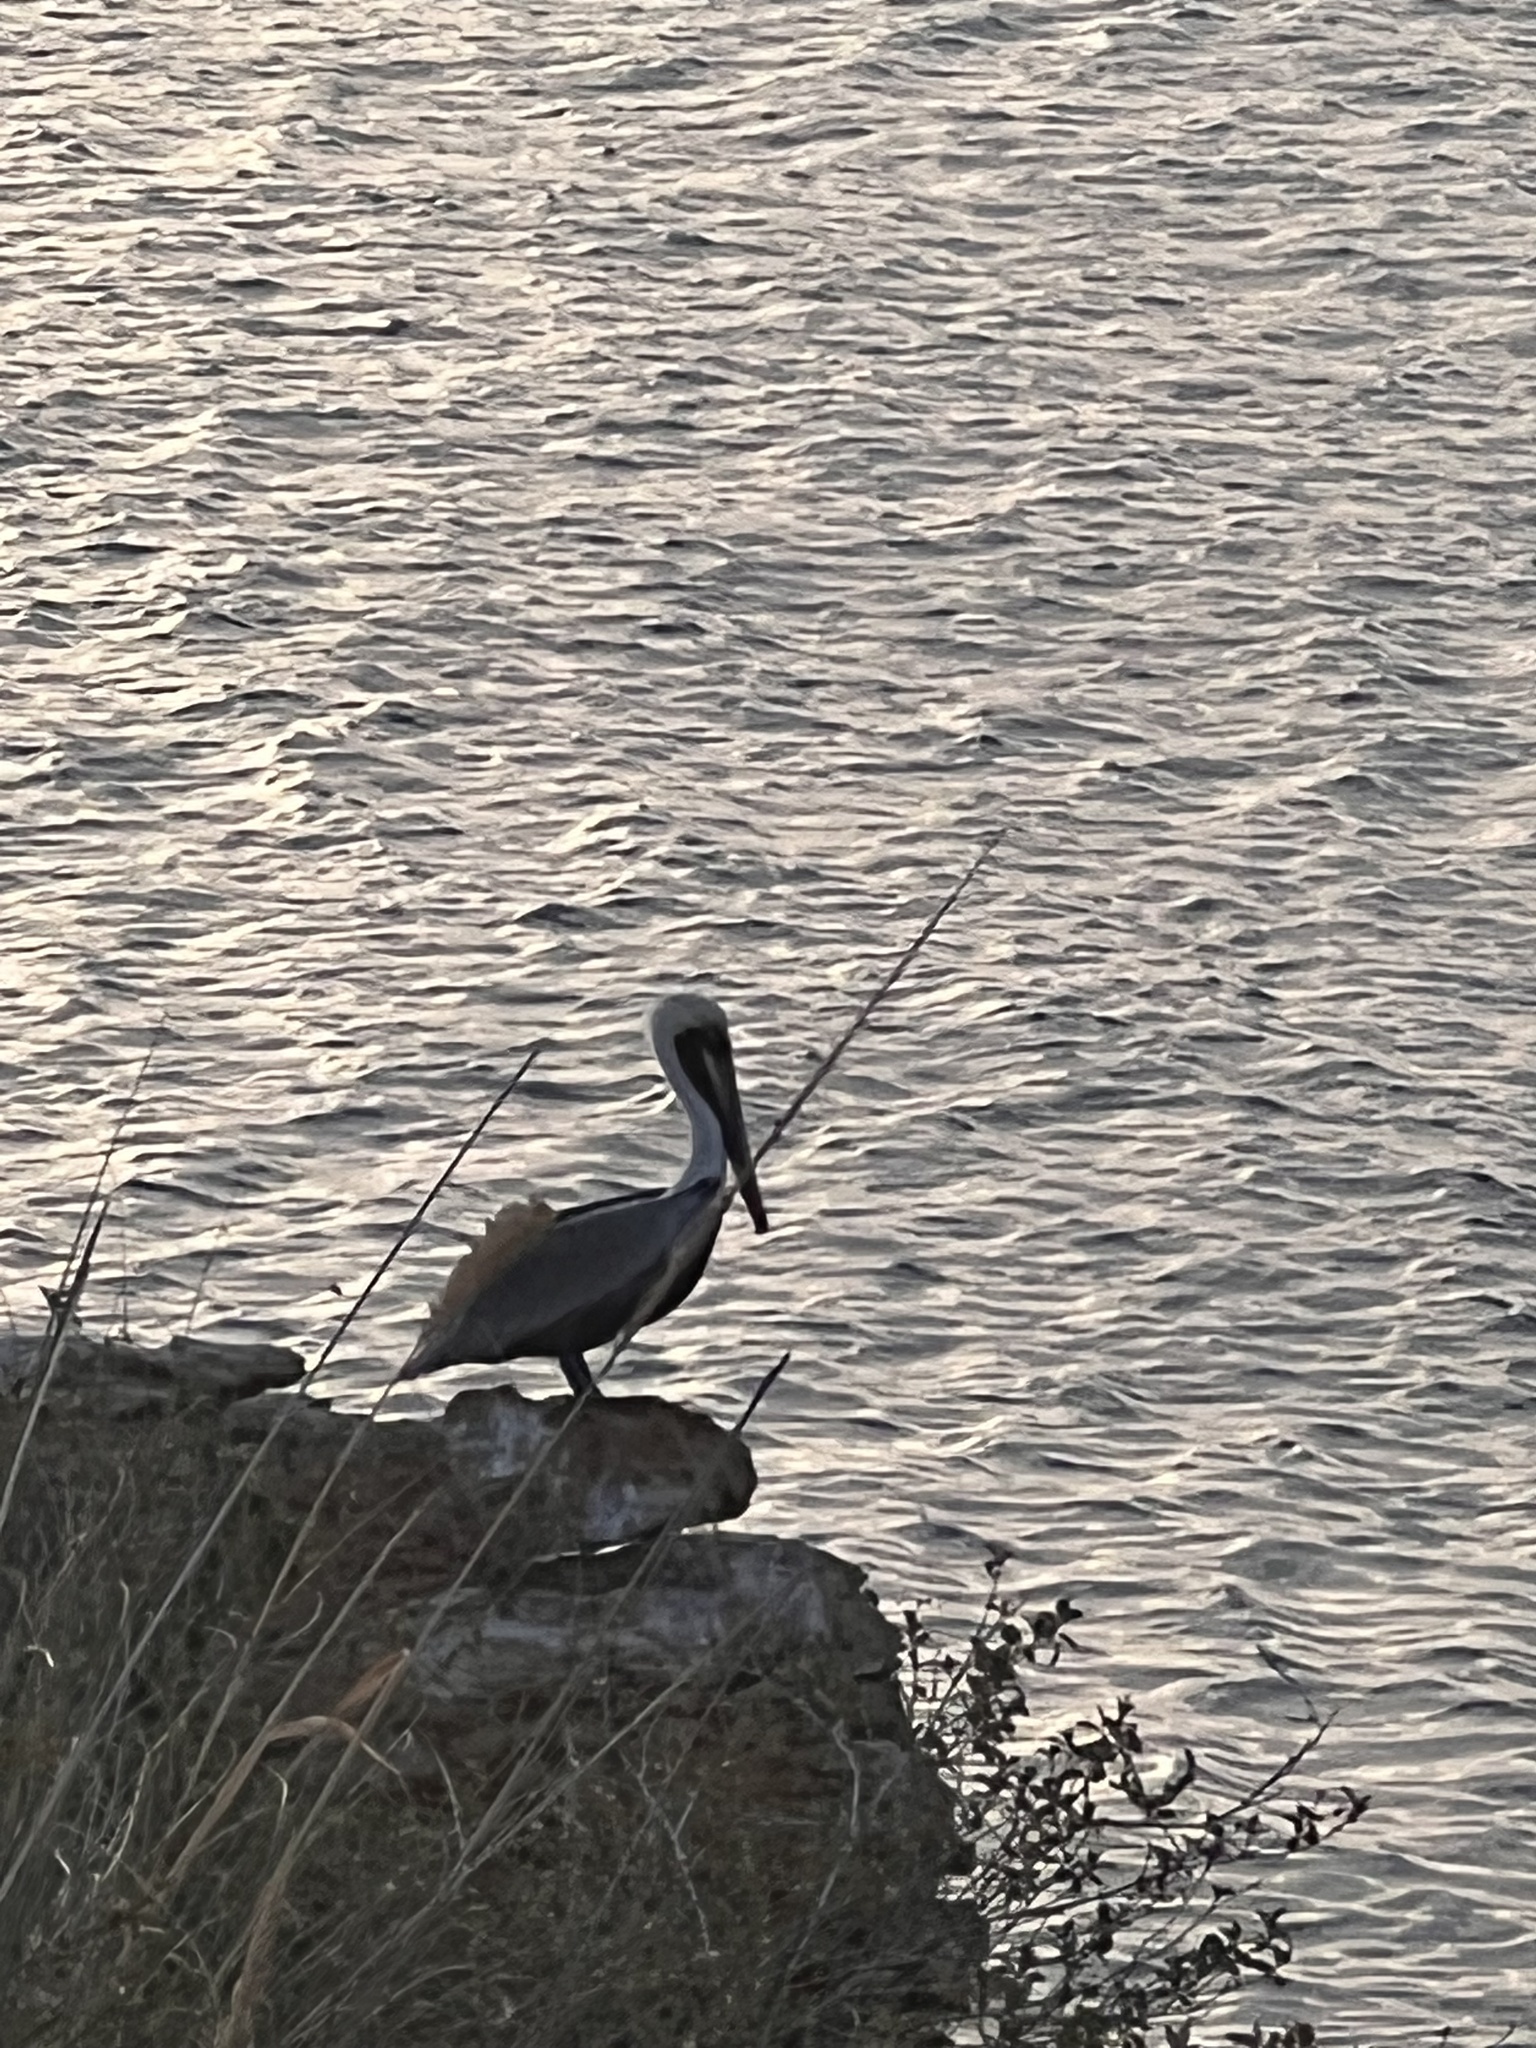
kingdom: Animalia
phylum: Chordata
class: Aves
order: Pelecaniformes
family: Pelecanidae
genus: Pelecanus
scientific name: Pelecanus occidentalis
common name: Brown pelican
